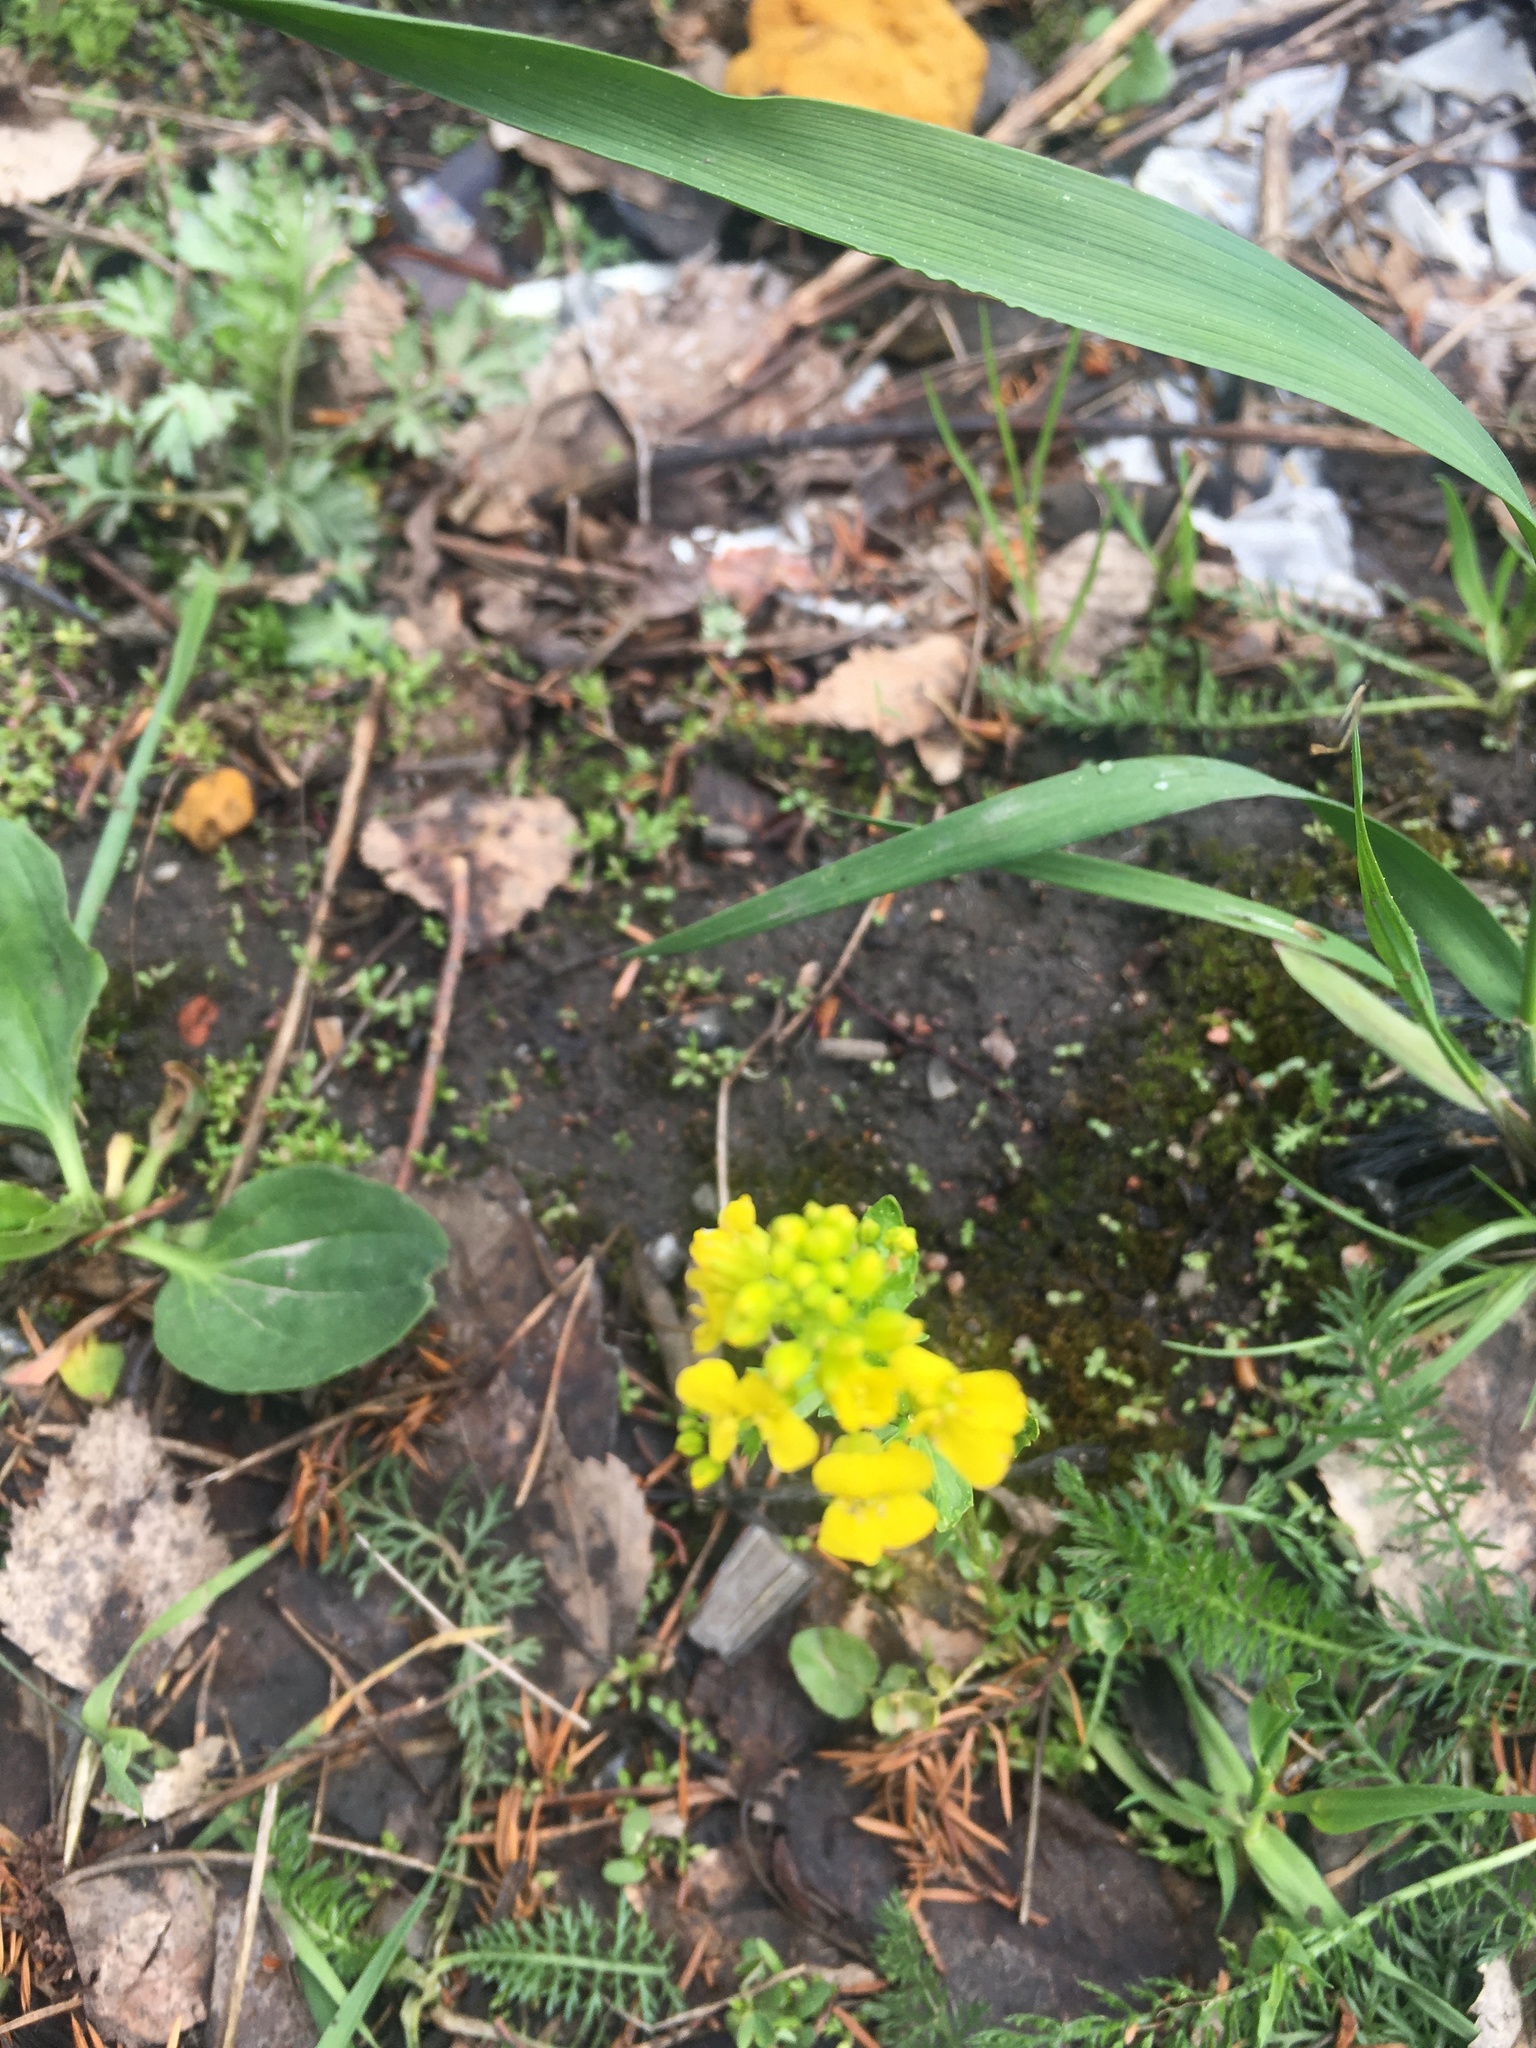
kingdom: Plantae
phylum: Tracheophyta
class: Magnoliopsida
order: Brassicales
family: Brassicaceae
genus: Barbarea
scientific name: Barbarea vulgaris
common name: Cressy-greens
